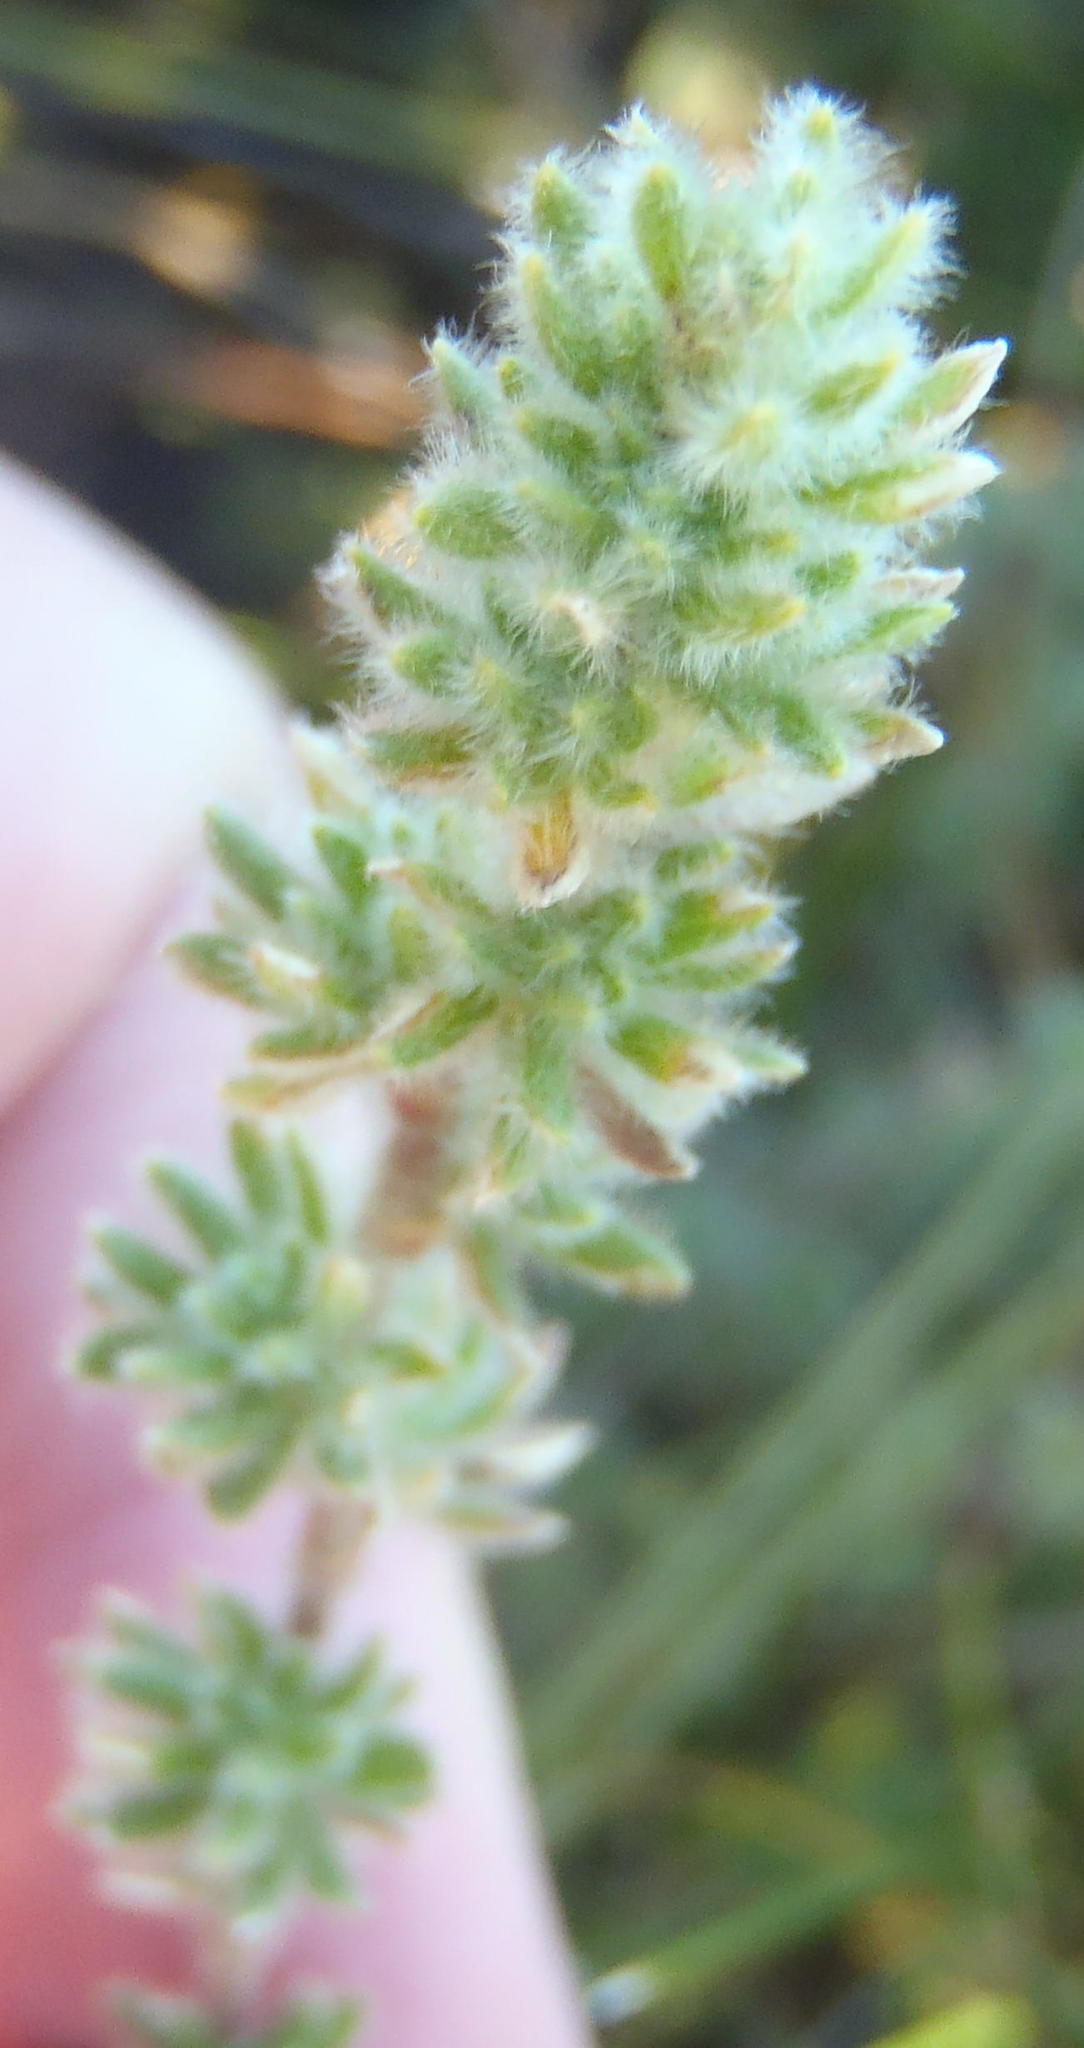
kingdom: Plantae
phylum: Tracheophyta
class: Magnoliopsida
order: Rosales
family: Rosaceae
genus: Cliffortia
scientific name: Cliffortia eriocephalina
